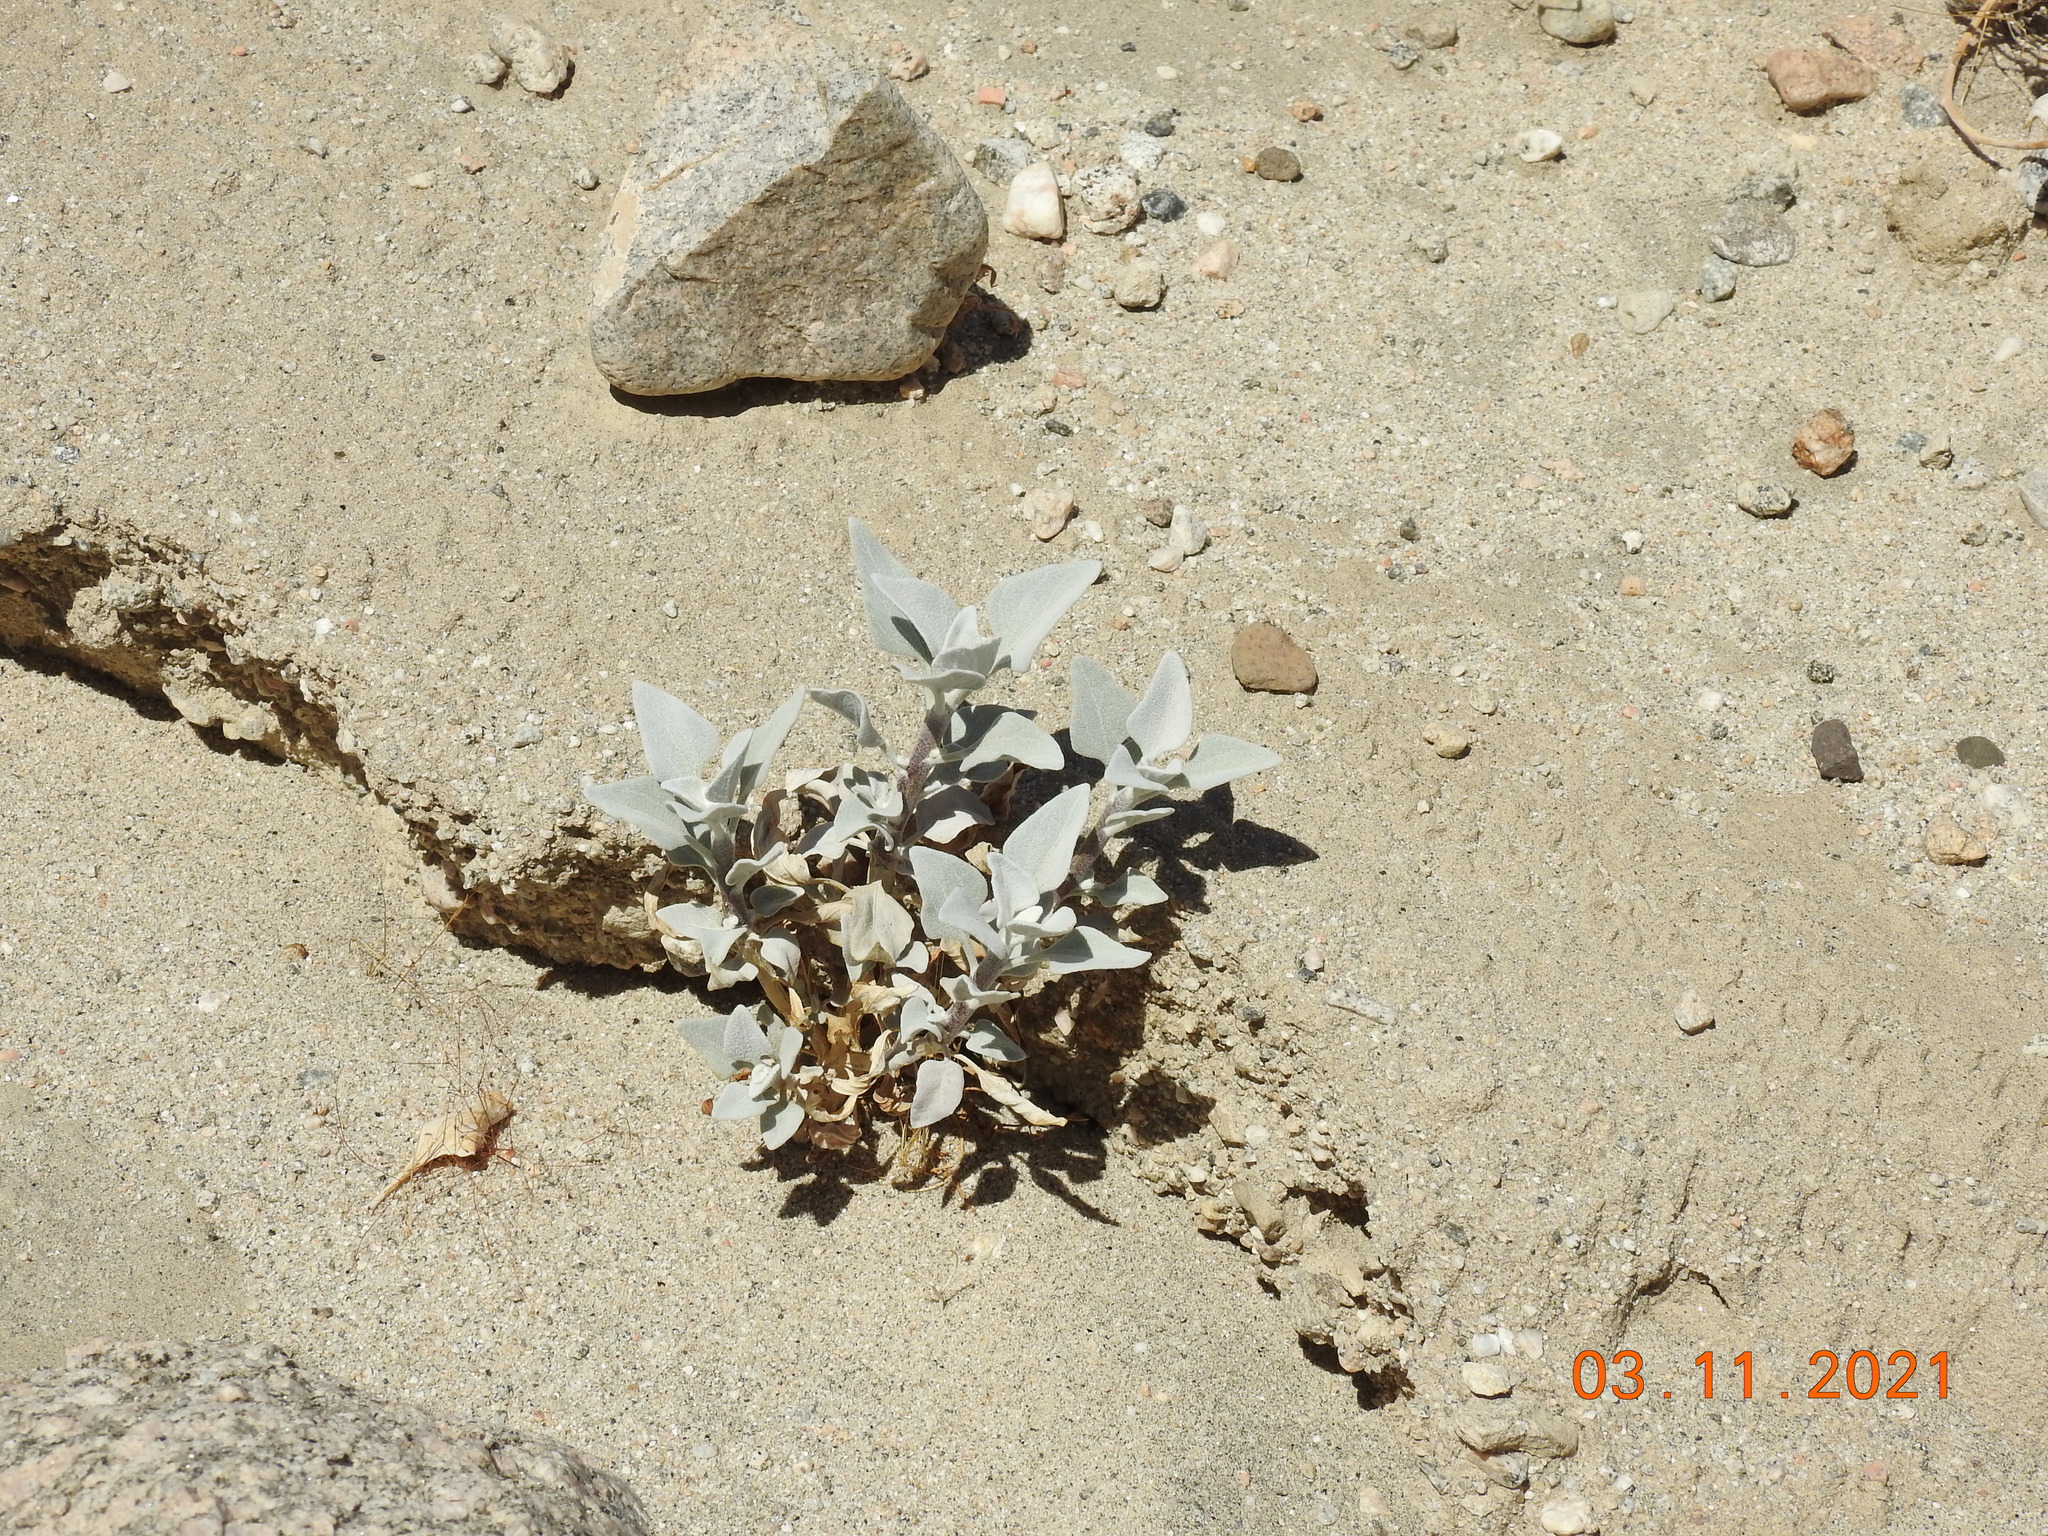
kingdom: Plantae
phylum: Tracheophyta
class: Magnoliopsida
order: Asterales
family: Asteraceae
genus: Encelia
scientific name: Encelia farinosa
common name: Brittlebush
